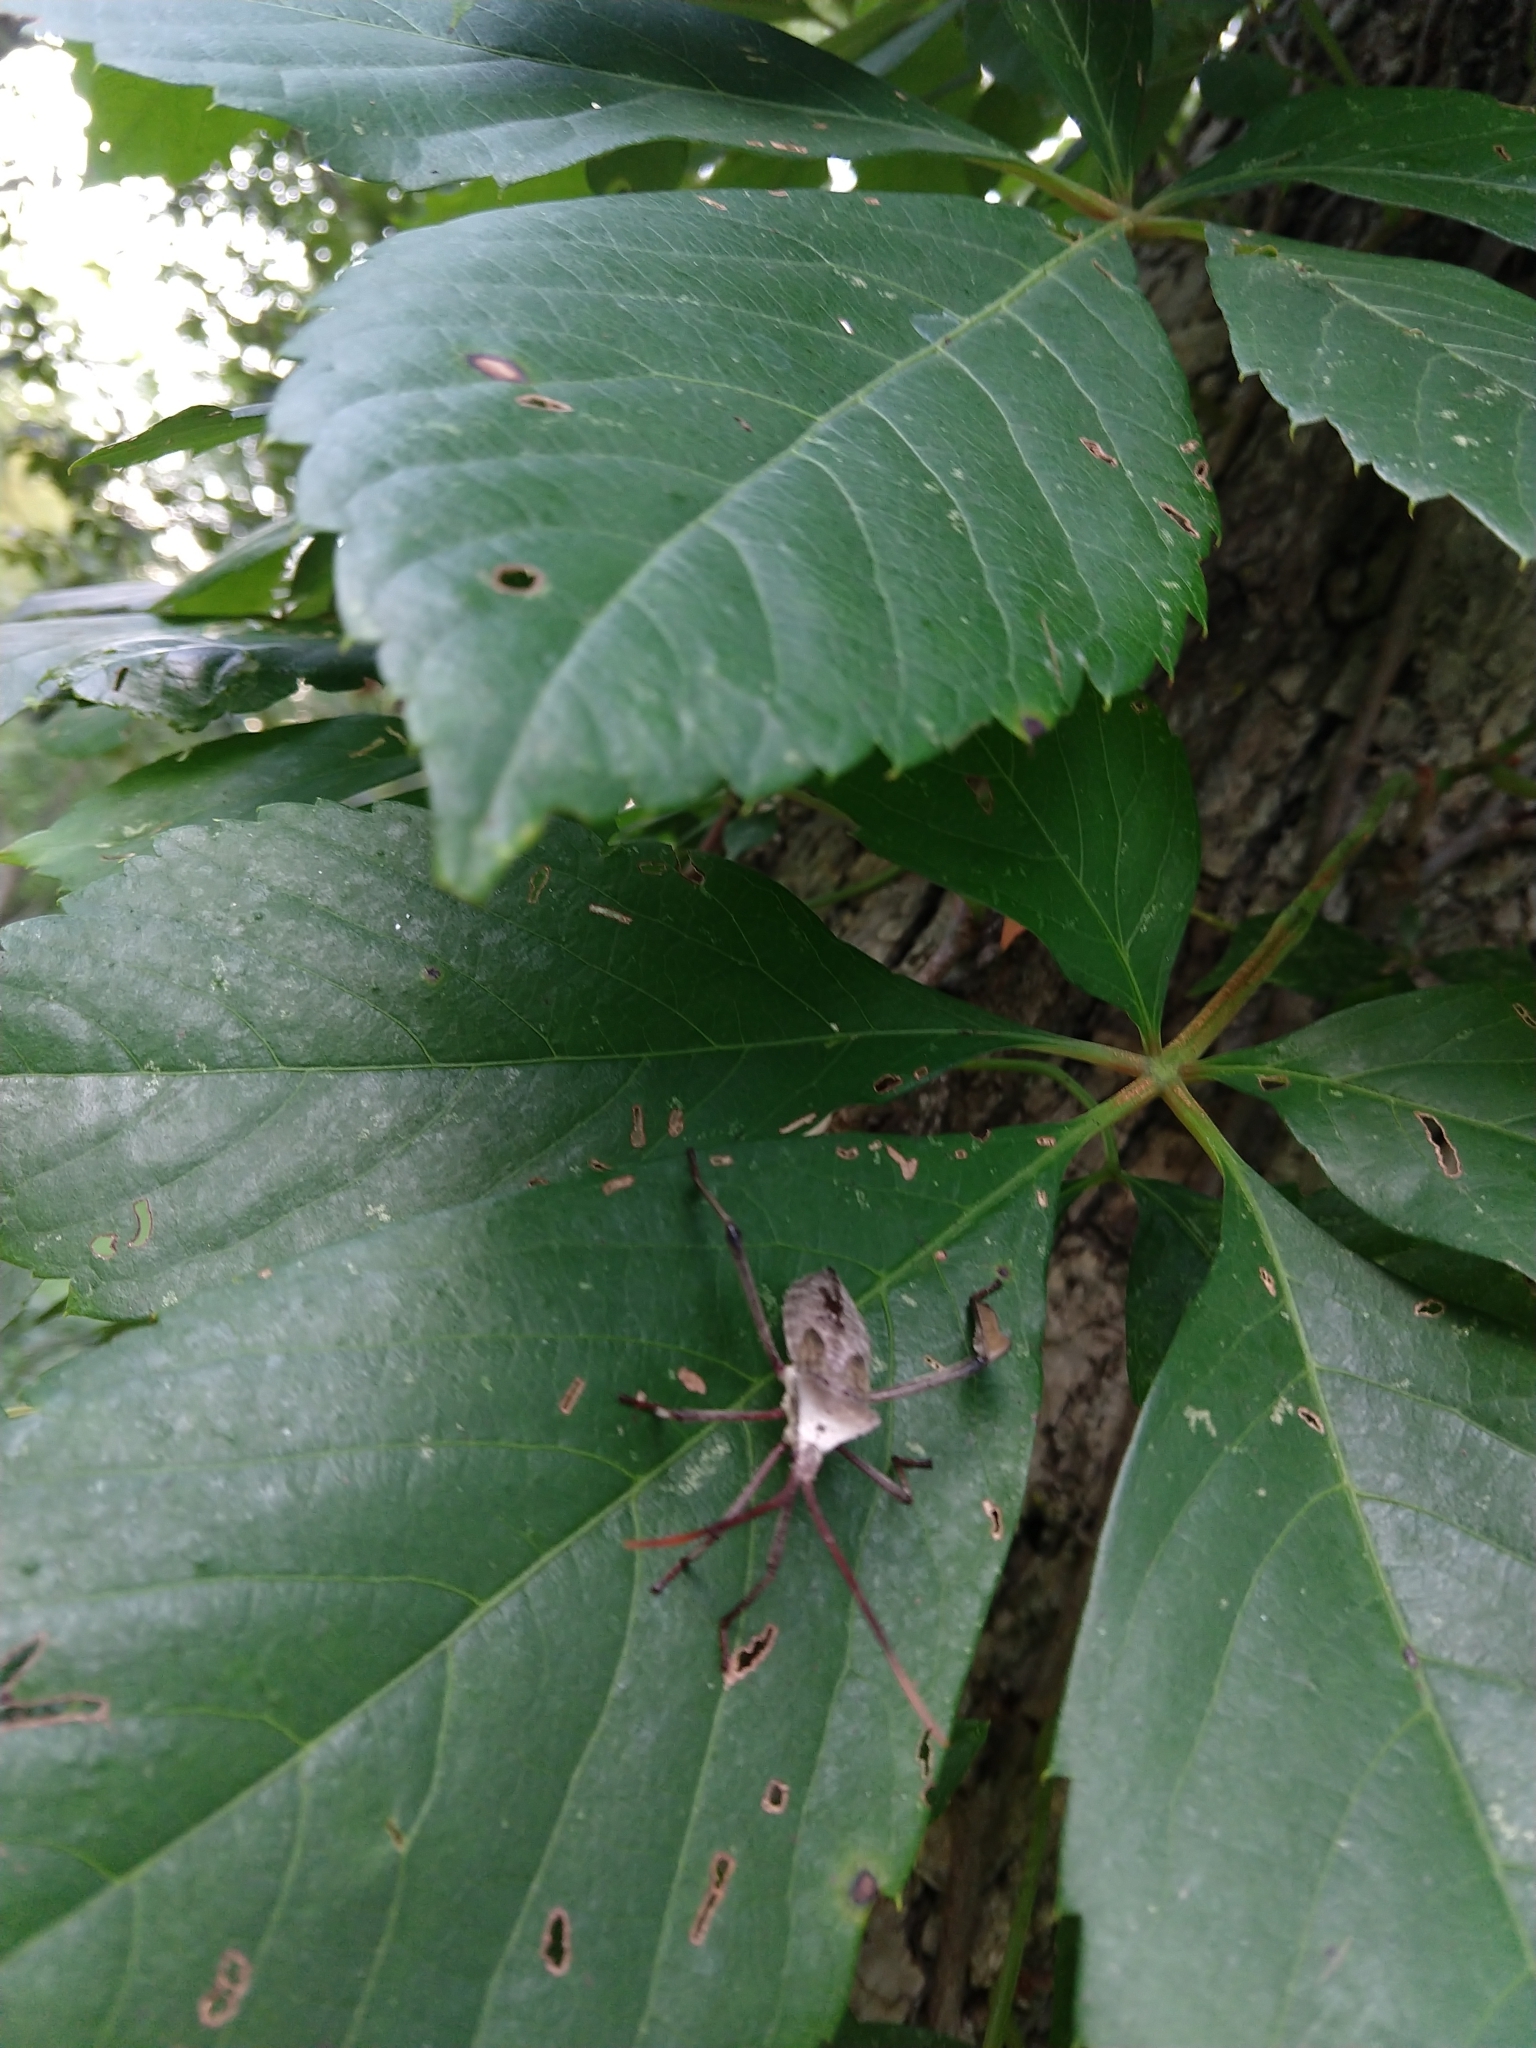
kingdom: Animalia
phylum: Arthropoda
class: Insecta
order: Hemiptera
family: Coreidae
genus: Acanthocephala
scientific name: Acanthocephala declivis
